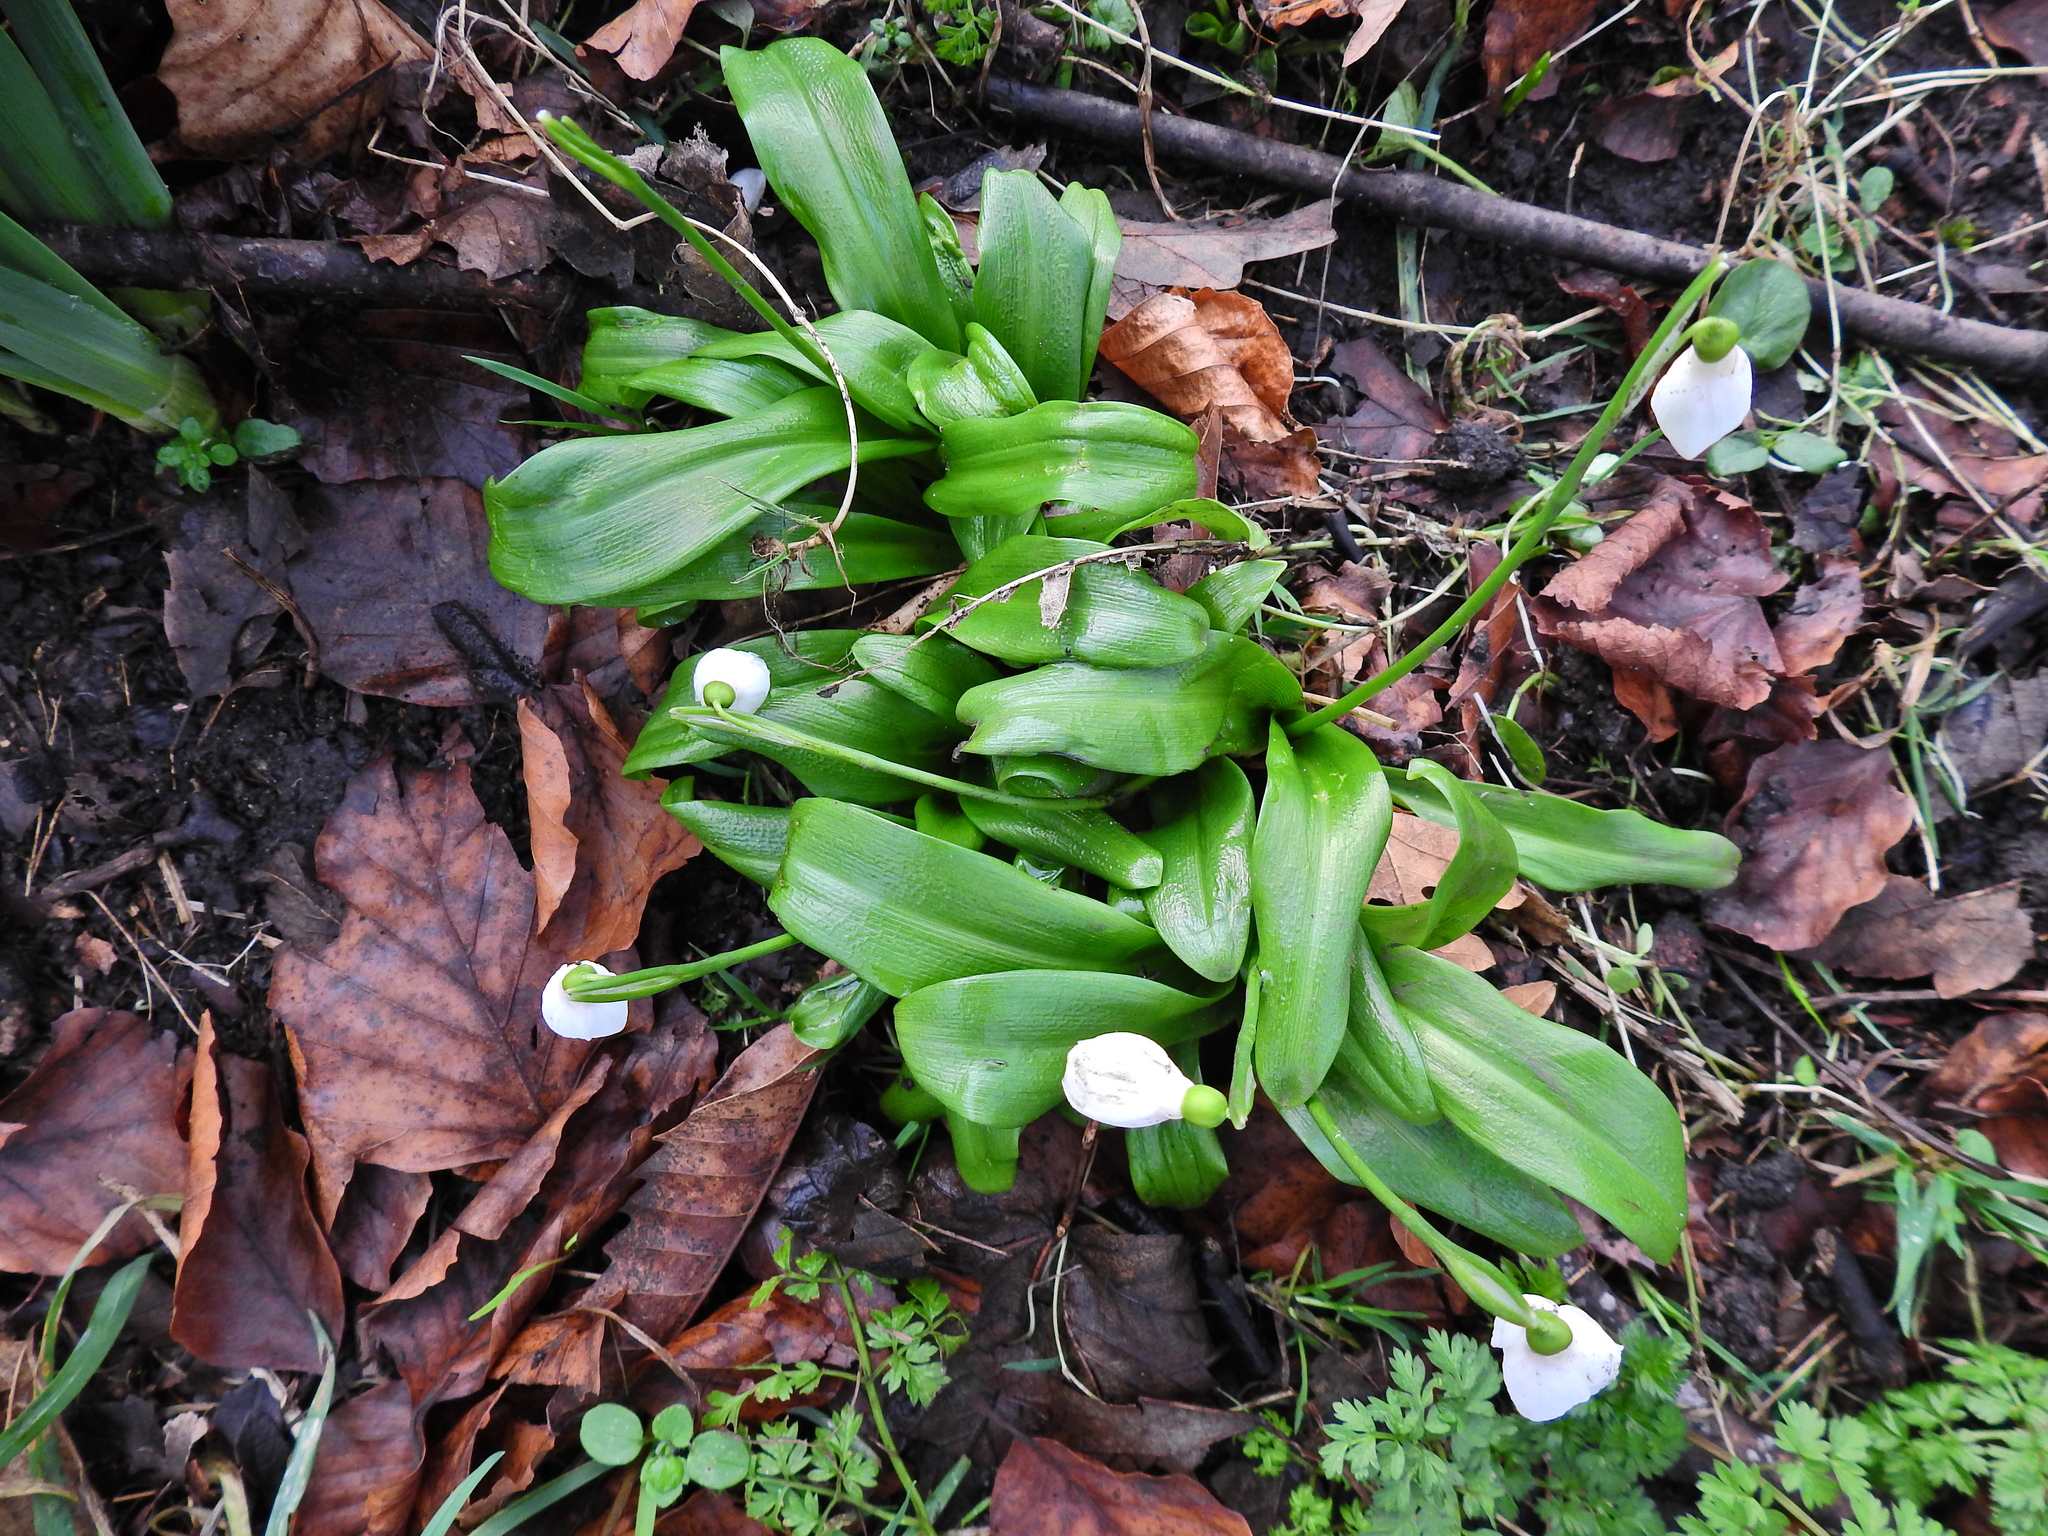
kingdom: Plantae
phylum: Tracheophyta
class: Liliopsida
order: Asparagales
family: Amaryllidaceae
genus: Galanthus
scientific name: Galanthus woronowii
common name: Green snowdrop
